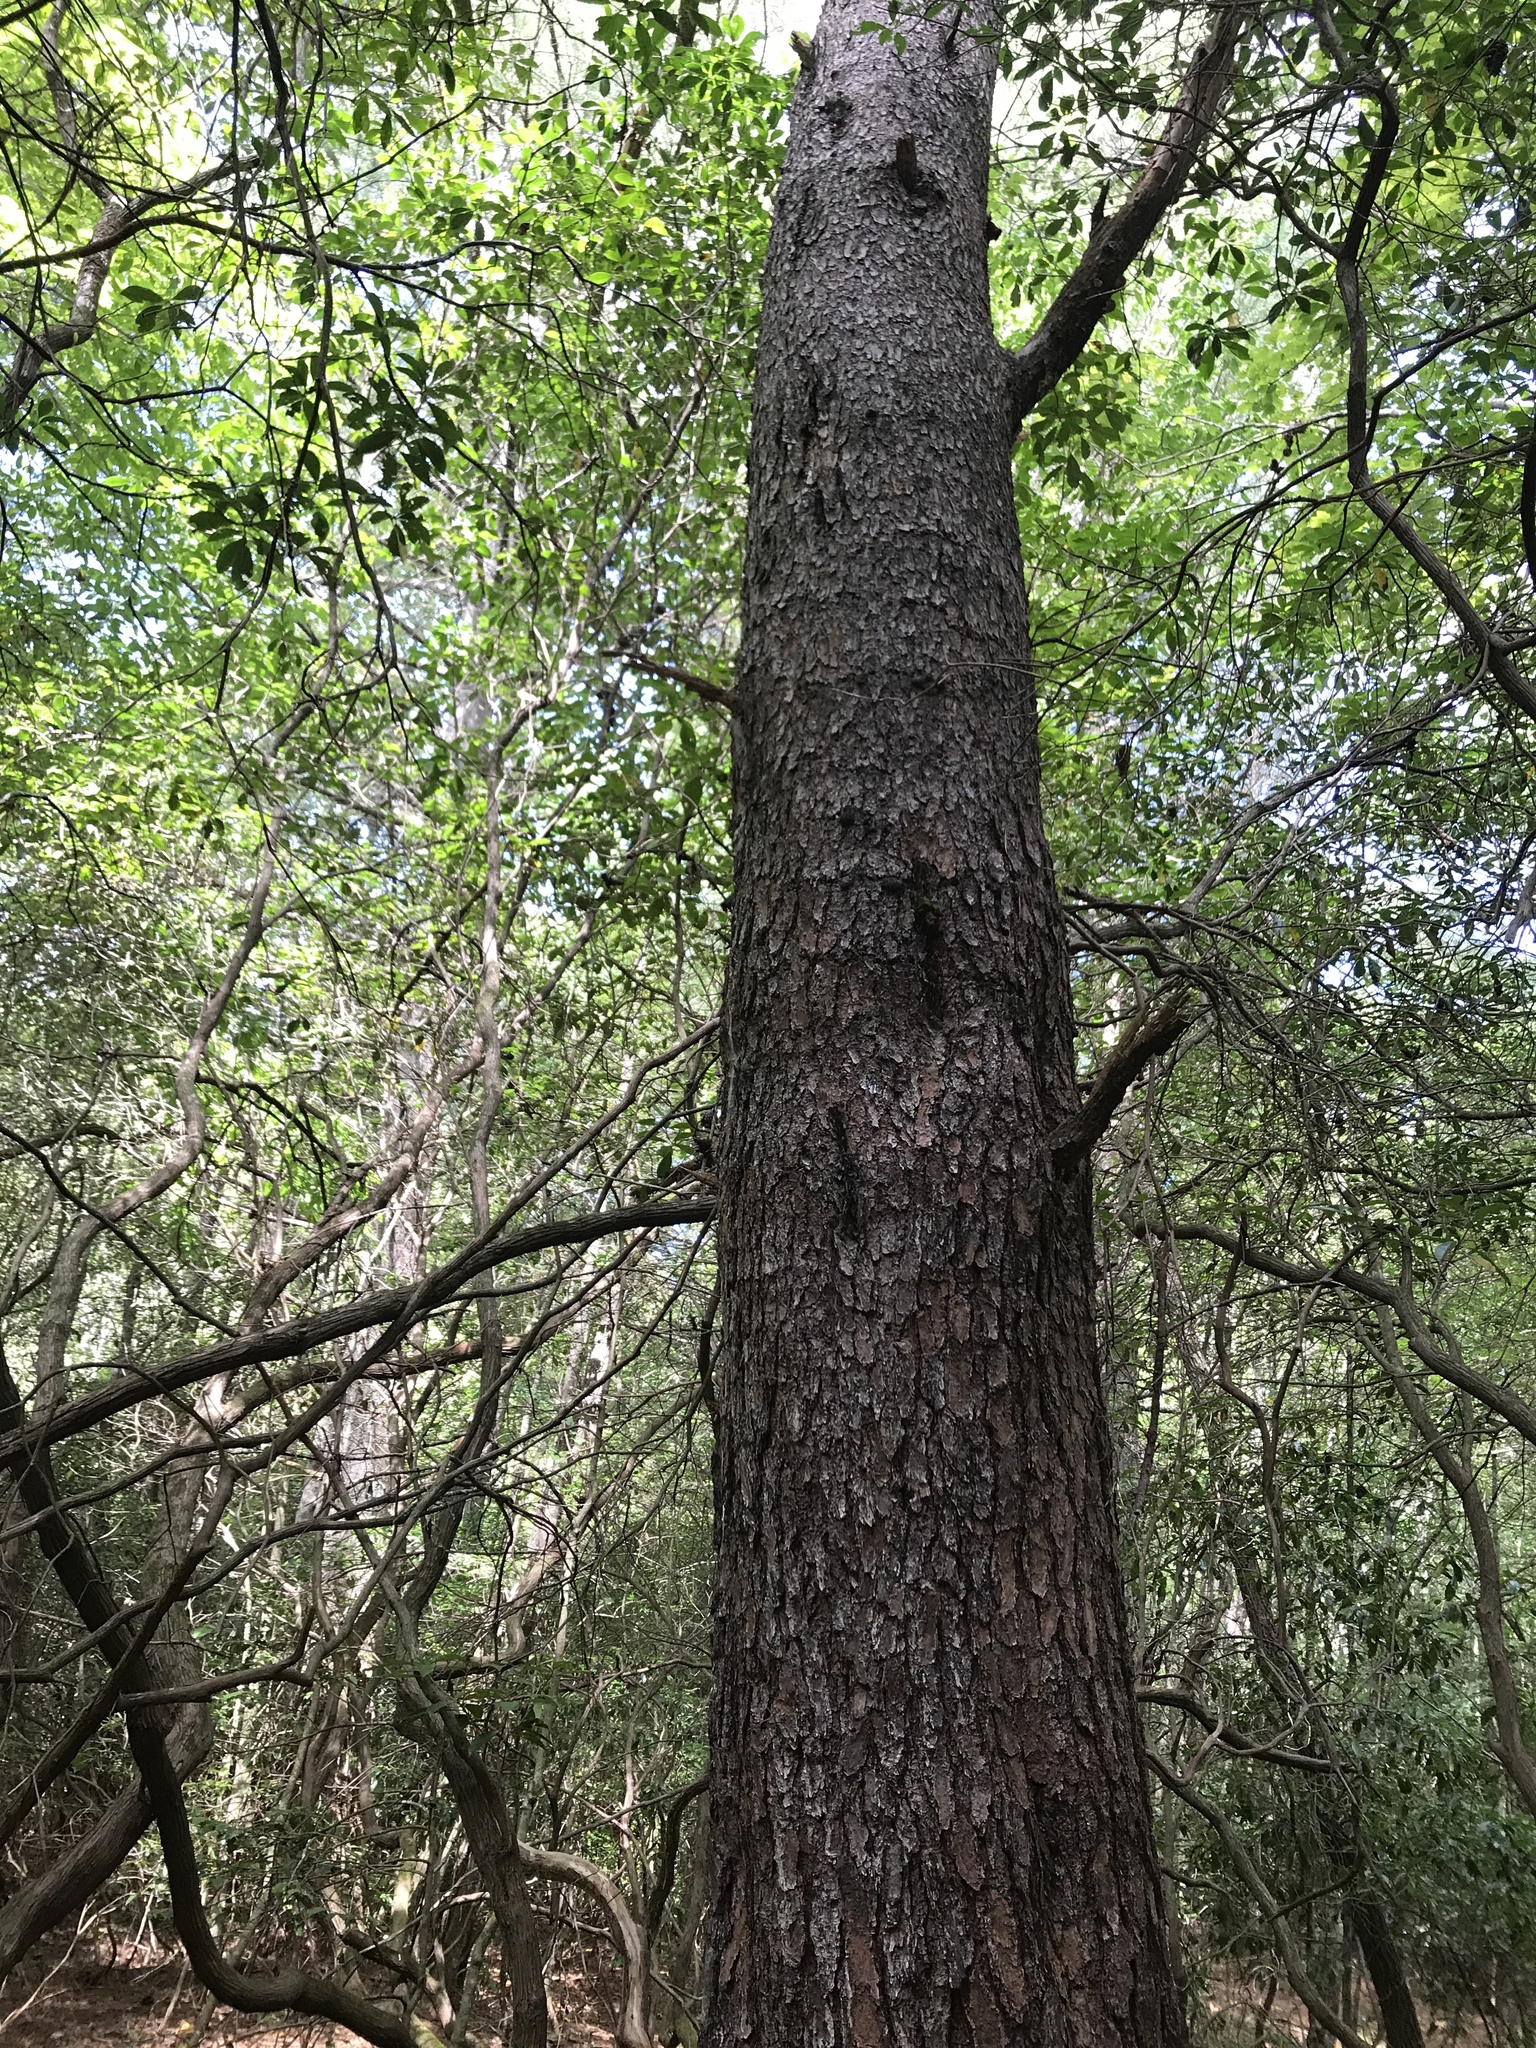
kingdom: Plantae
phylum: Tracheophyta
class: Pinopsida
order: Pinales
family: Pinaceae
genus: Pinus
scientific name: Pinus virginiana
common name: Scrub pine
